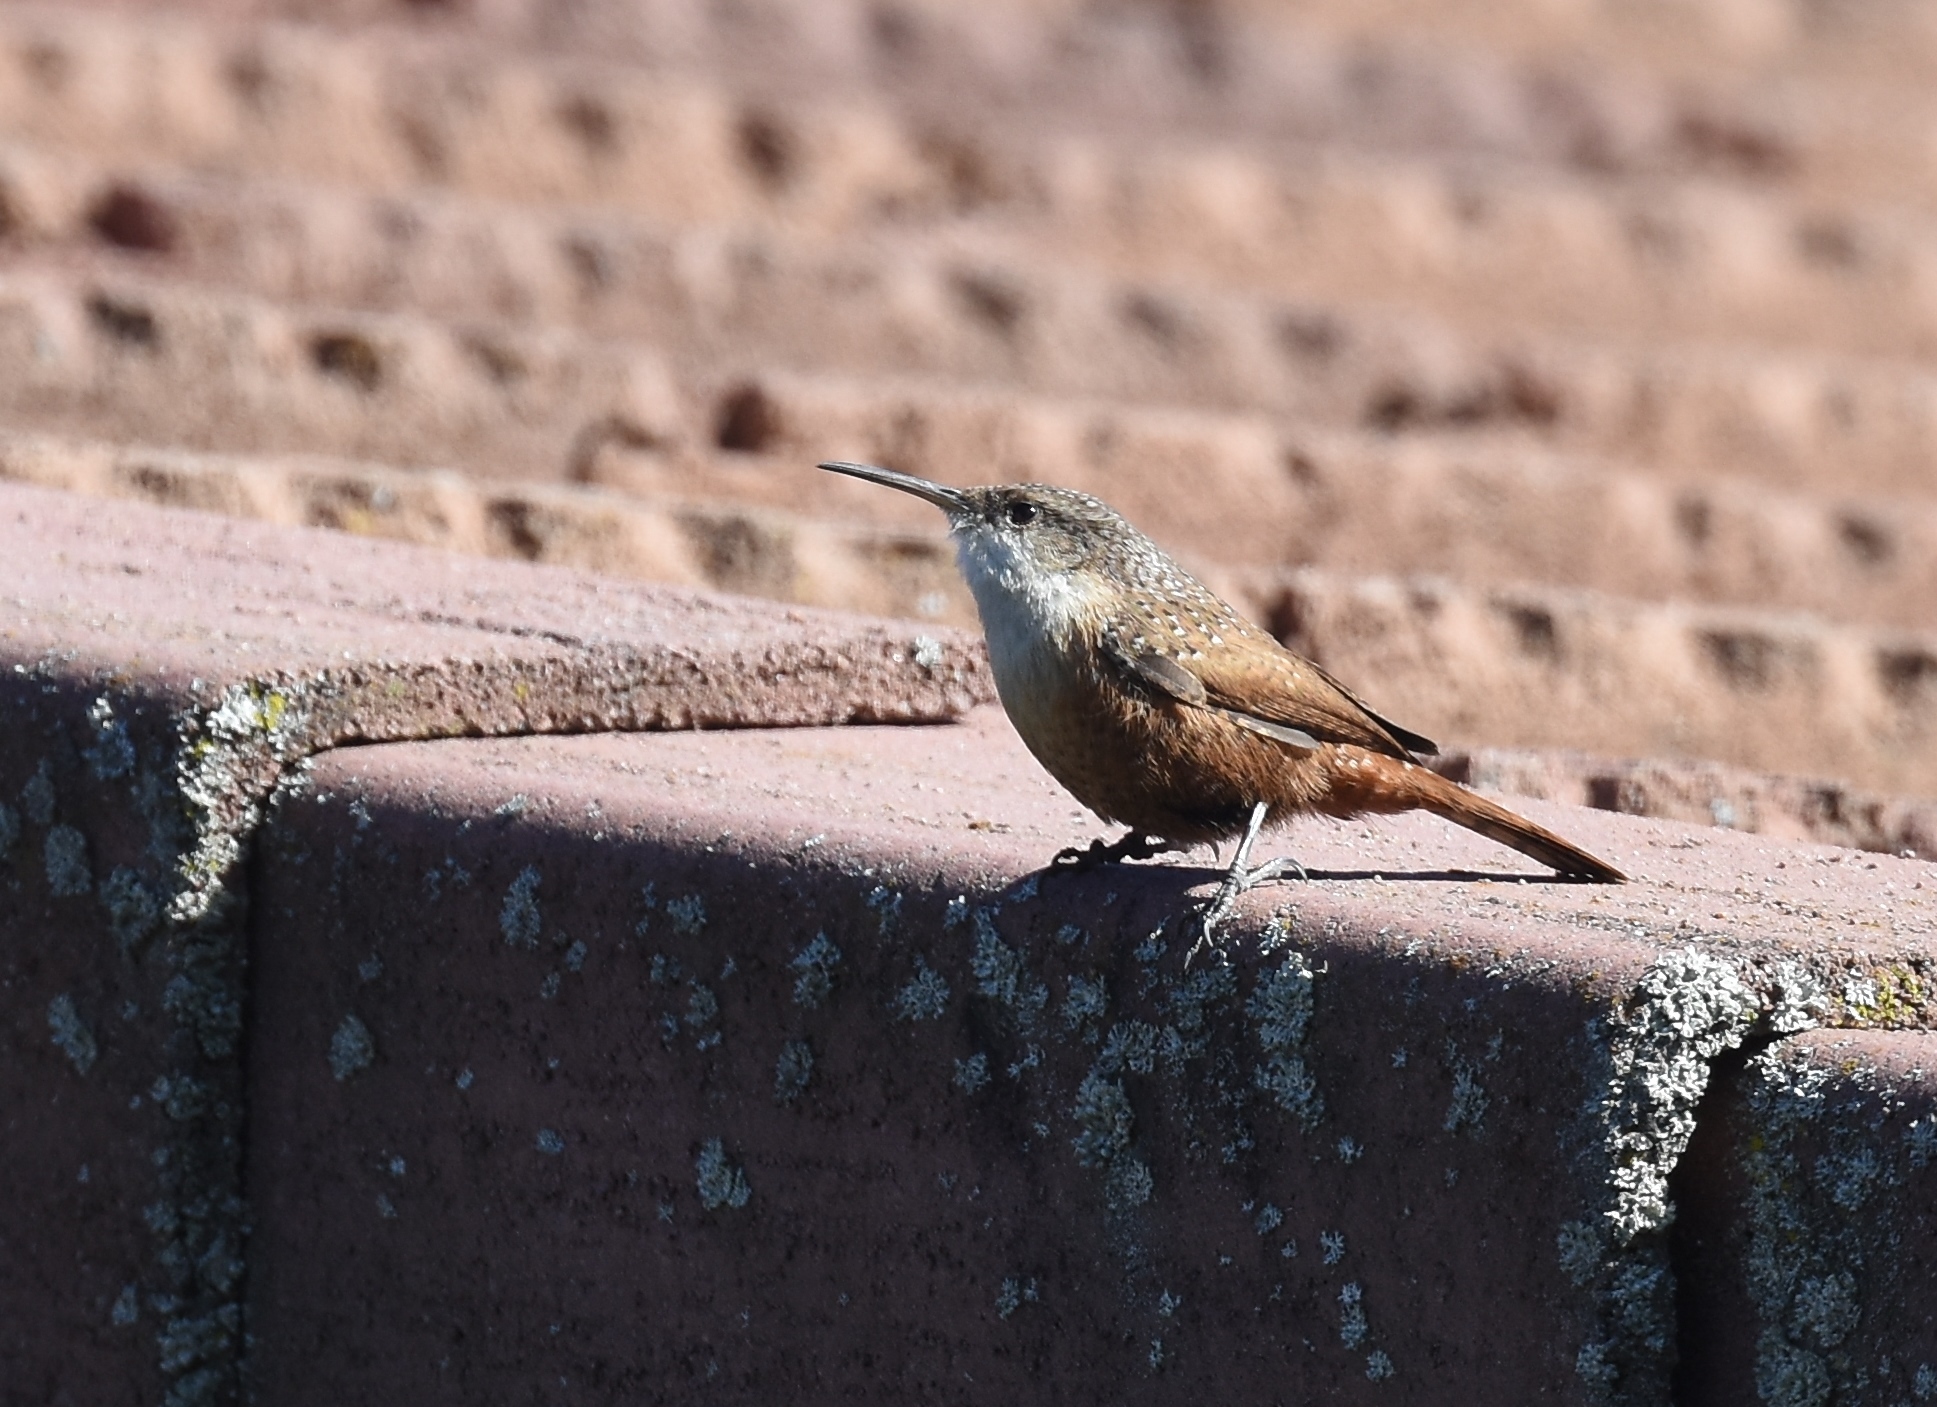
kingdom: Animalia
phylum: Chordata
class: Aves
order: Passeriformes
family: Troglodytidae
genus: Catherpes
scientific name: Catherpes mexicanus
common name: Canyon wren
